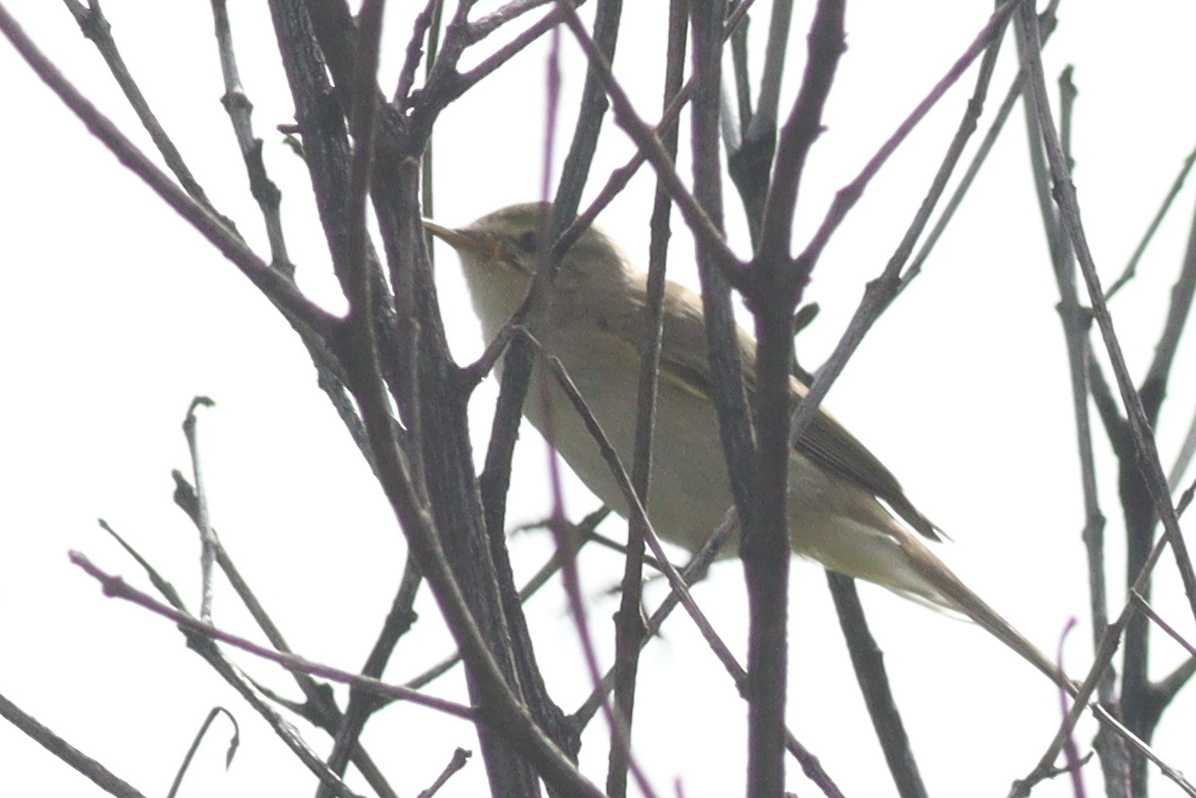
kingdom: Animalia
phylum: Chordata
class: Aves
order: Passeriformes
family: Phylloscopidae
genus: Phylloscopus
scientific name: Phylloscopus trochilus
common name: Willow warbler
